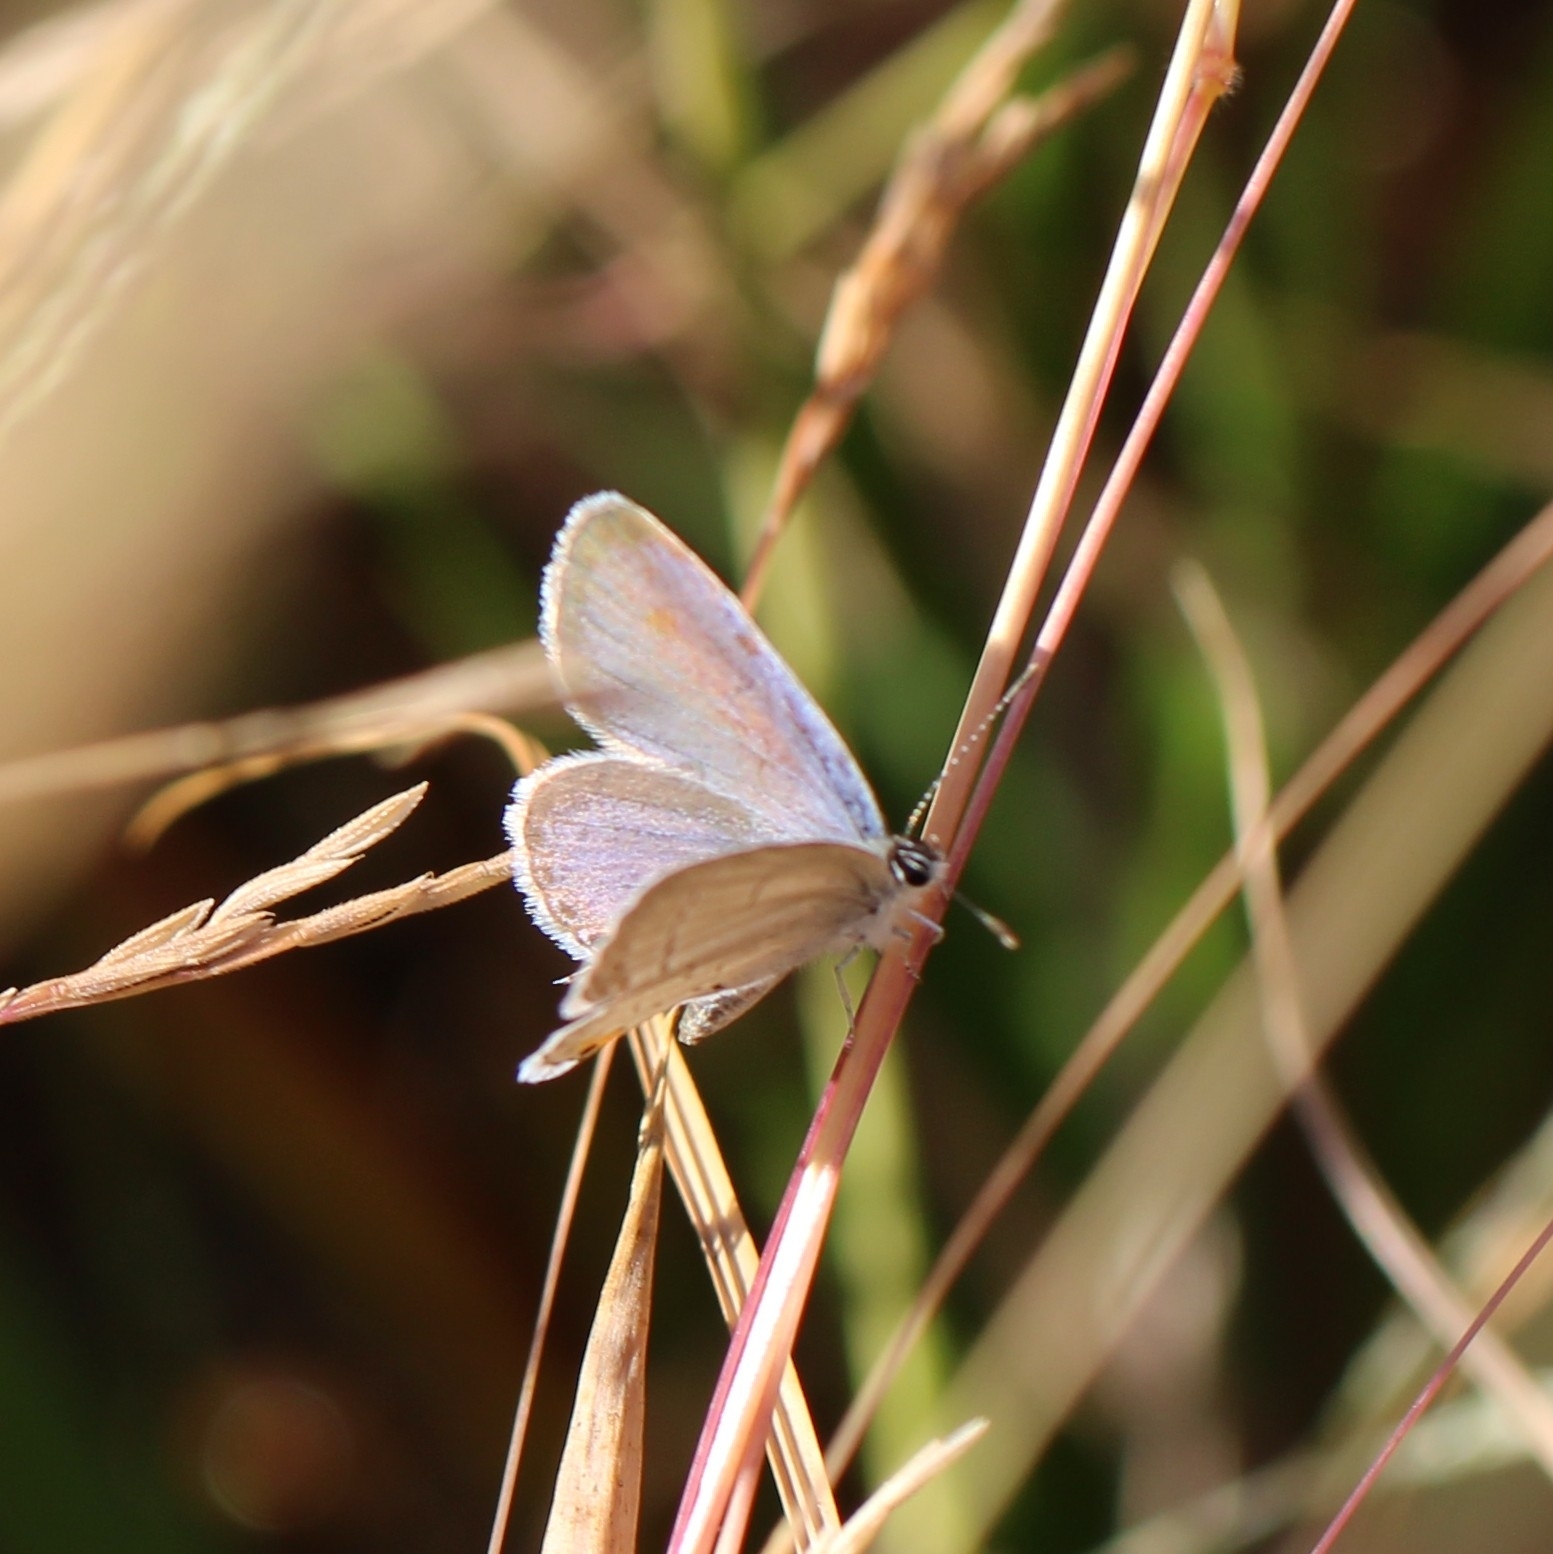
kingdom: Animalia
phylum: Arthropoda
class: Insecta
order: Lepidoptera
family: Lycaenidae
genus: Elkalyce
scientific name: Elkalyce comyntas
